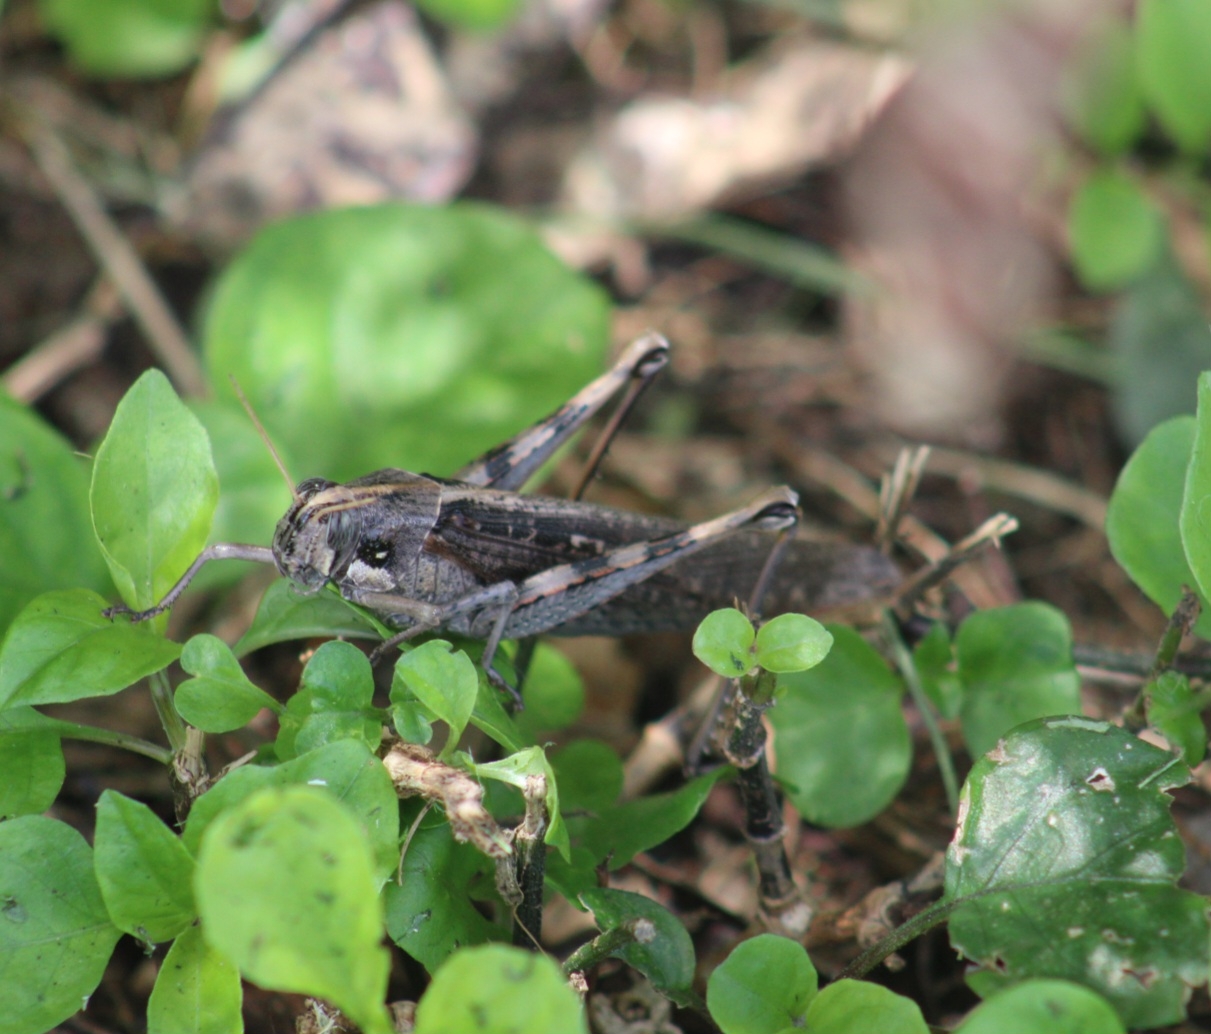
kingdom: Animalia
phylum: Arthropoda
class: Insecta
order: Orthoptera
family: Acrididae
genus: Schistocerca
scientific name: Schistocerca nitens
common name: Vagrant grasshopper
